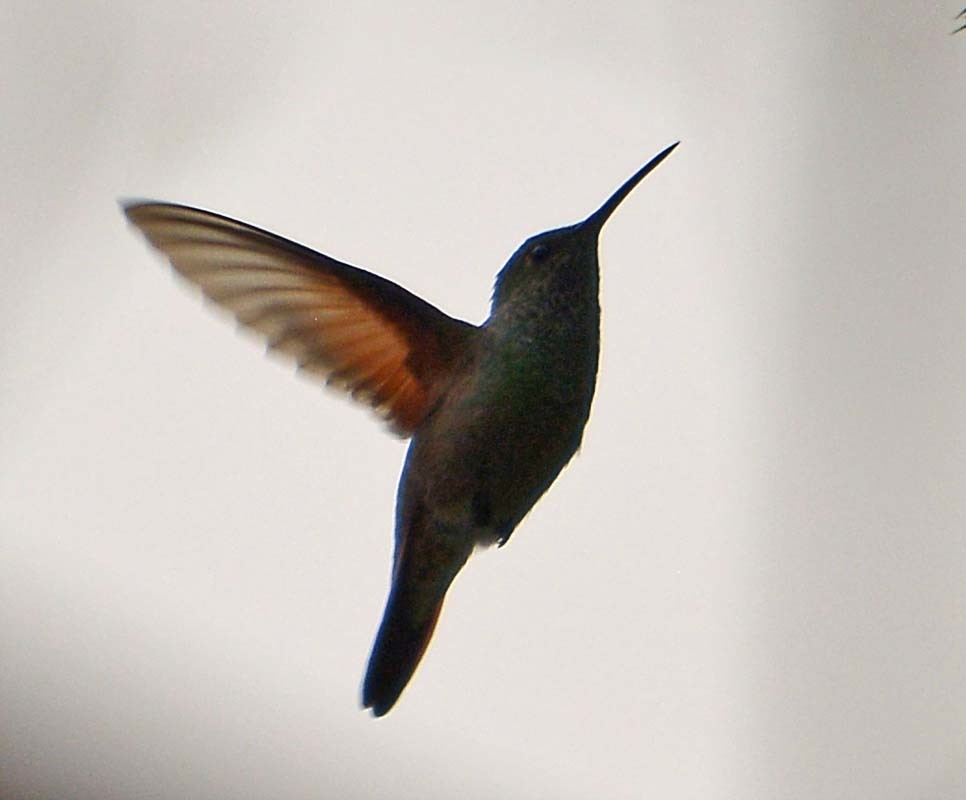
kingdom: Animalia
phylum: Chordata
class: Aves
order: Apodiformes
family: Trochilidae
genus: Saucerottia
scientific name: Saucerottia beryllina
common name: Berylline hummingbird
